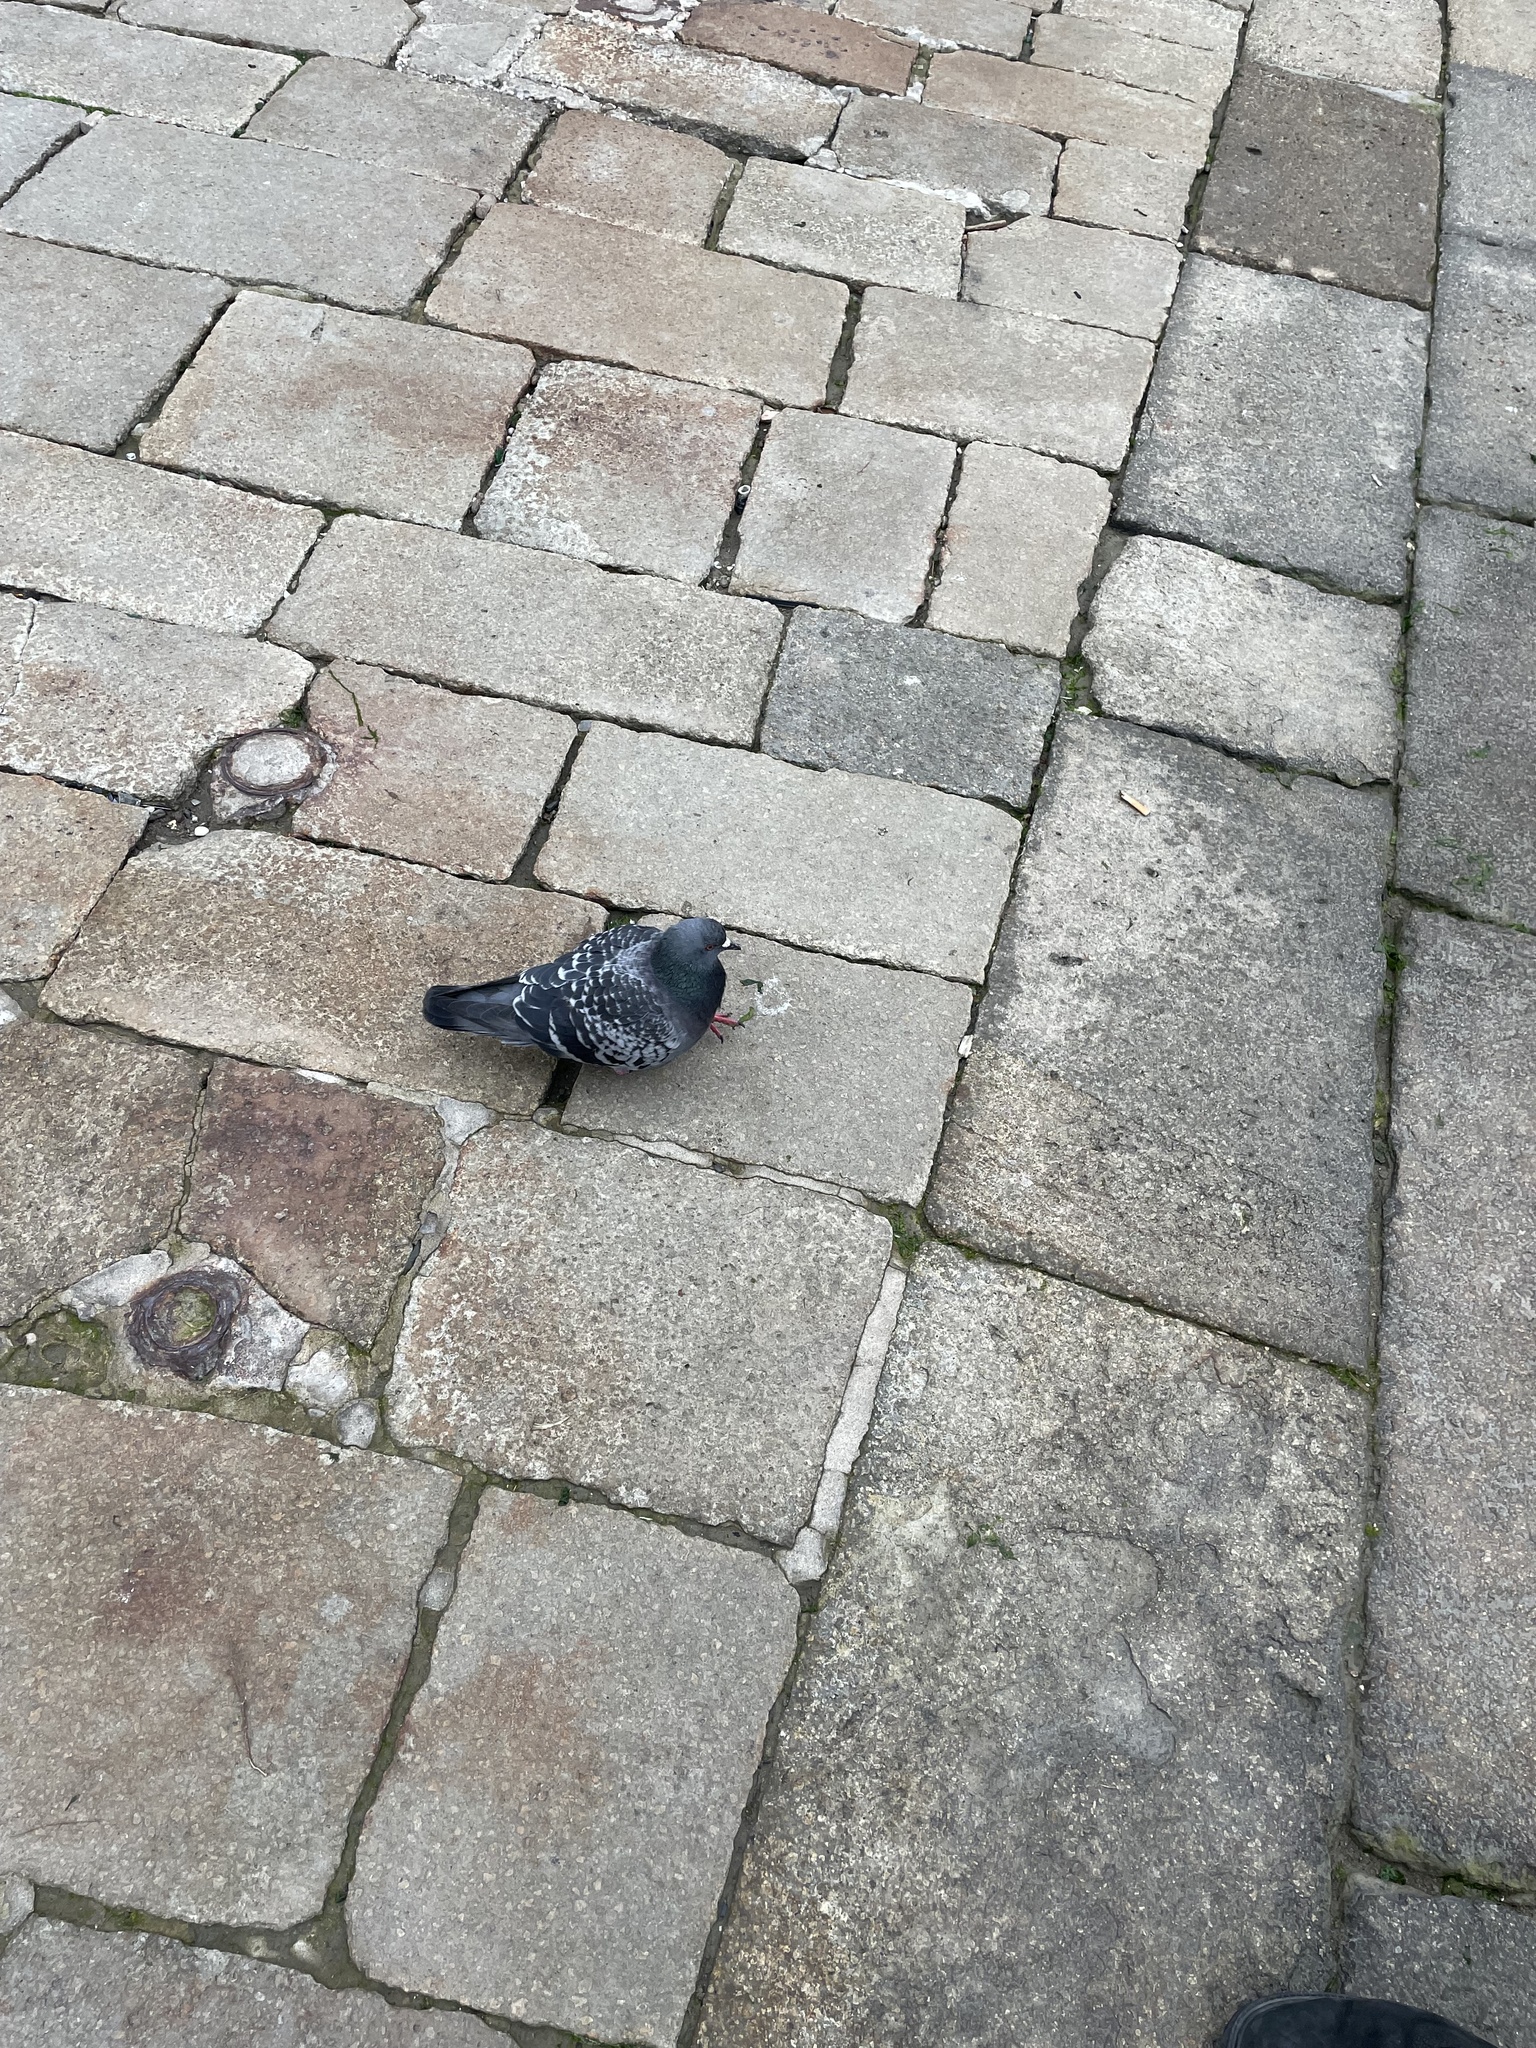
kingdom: Animalia
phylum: Chordata
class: Aves
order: Columbiformes
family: Columbidae
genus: Columba
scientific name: Columba livia
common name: Rock pigeon
